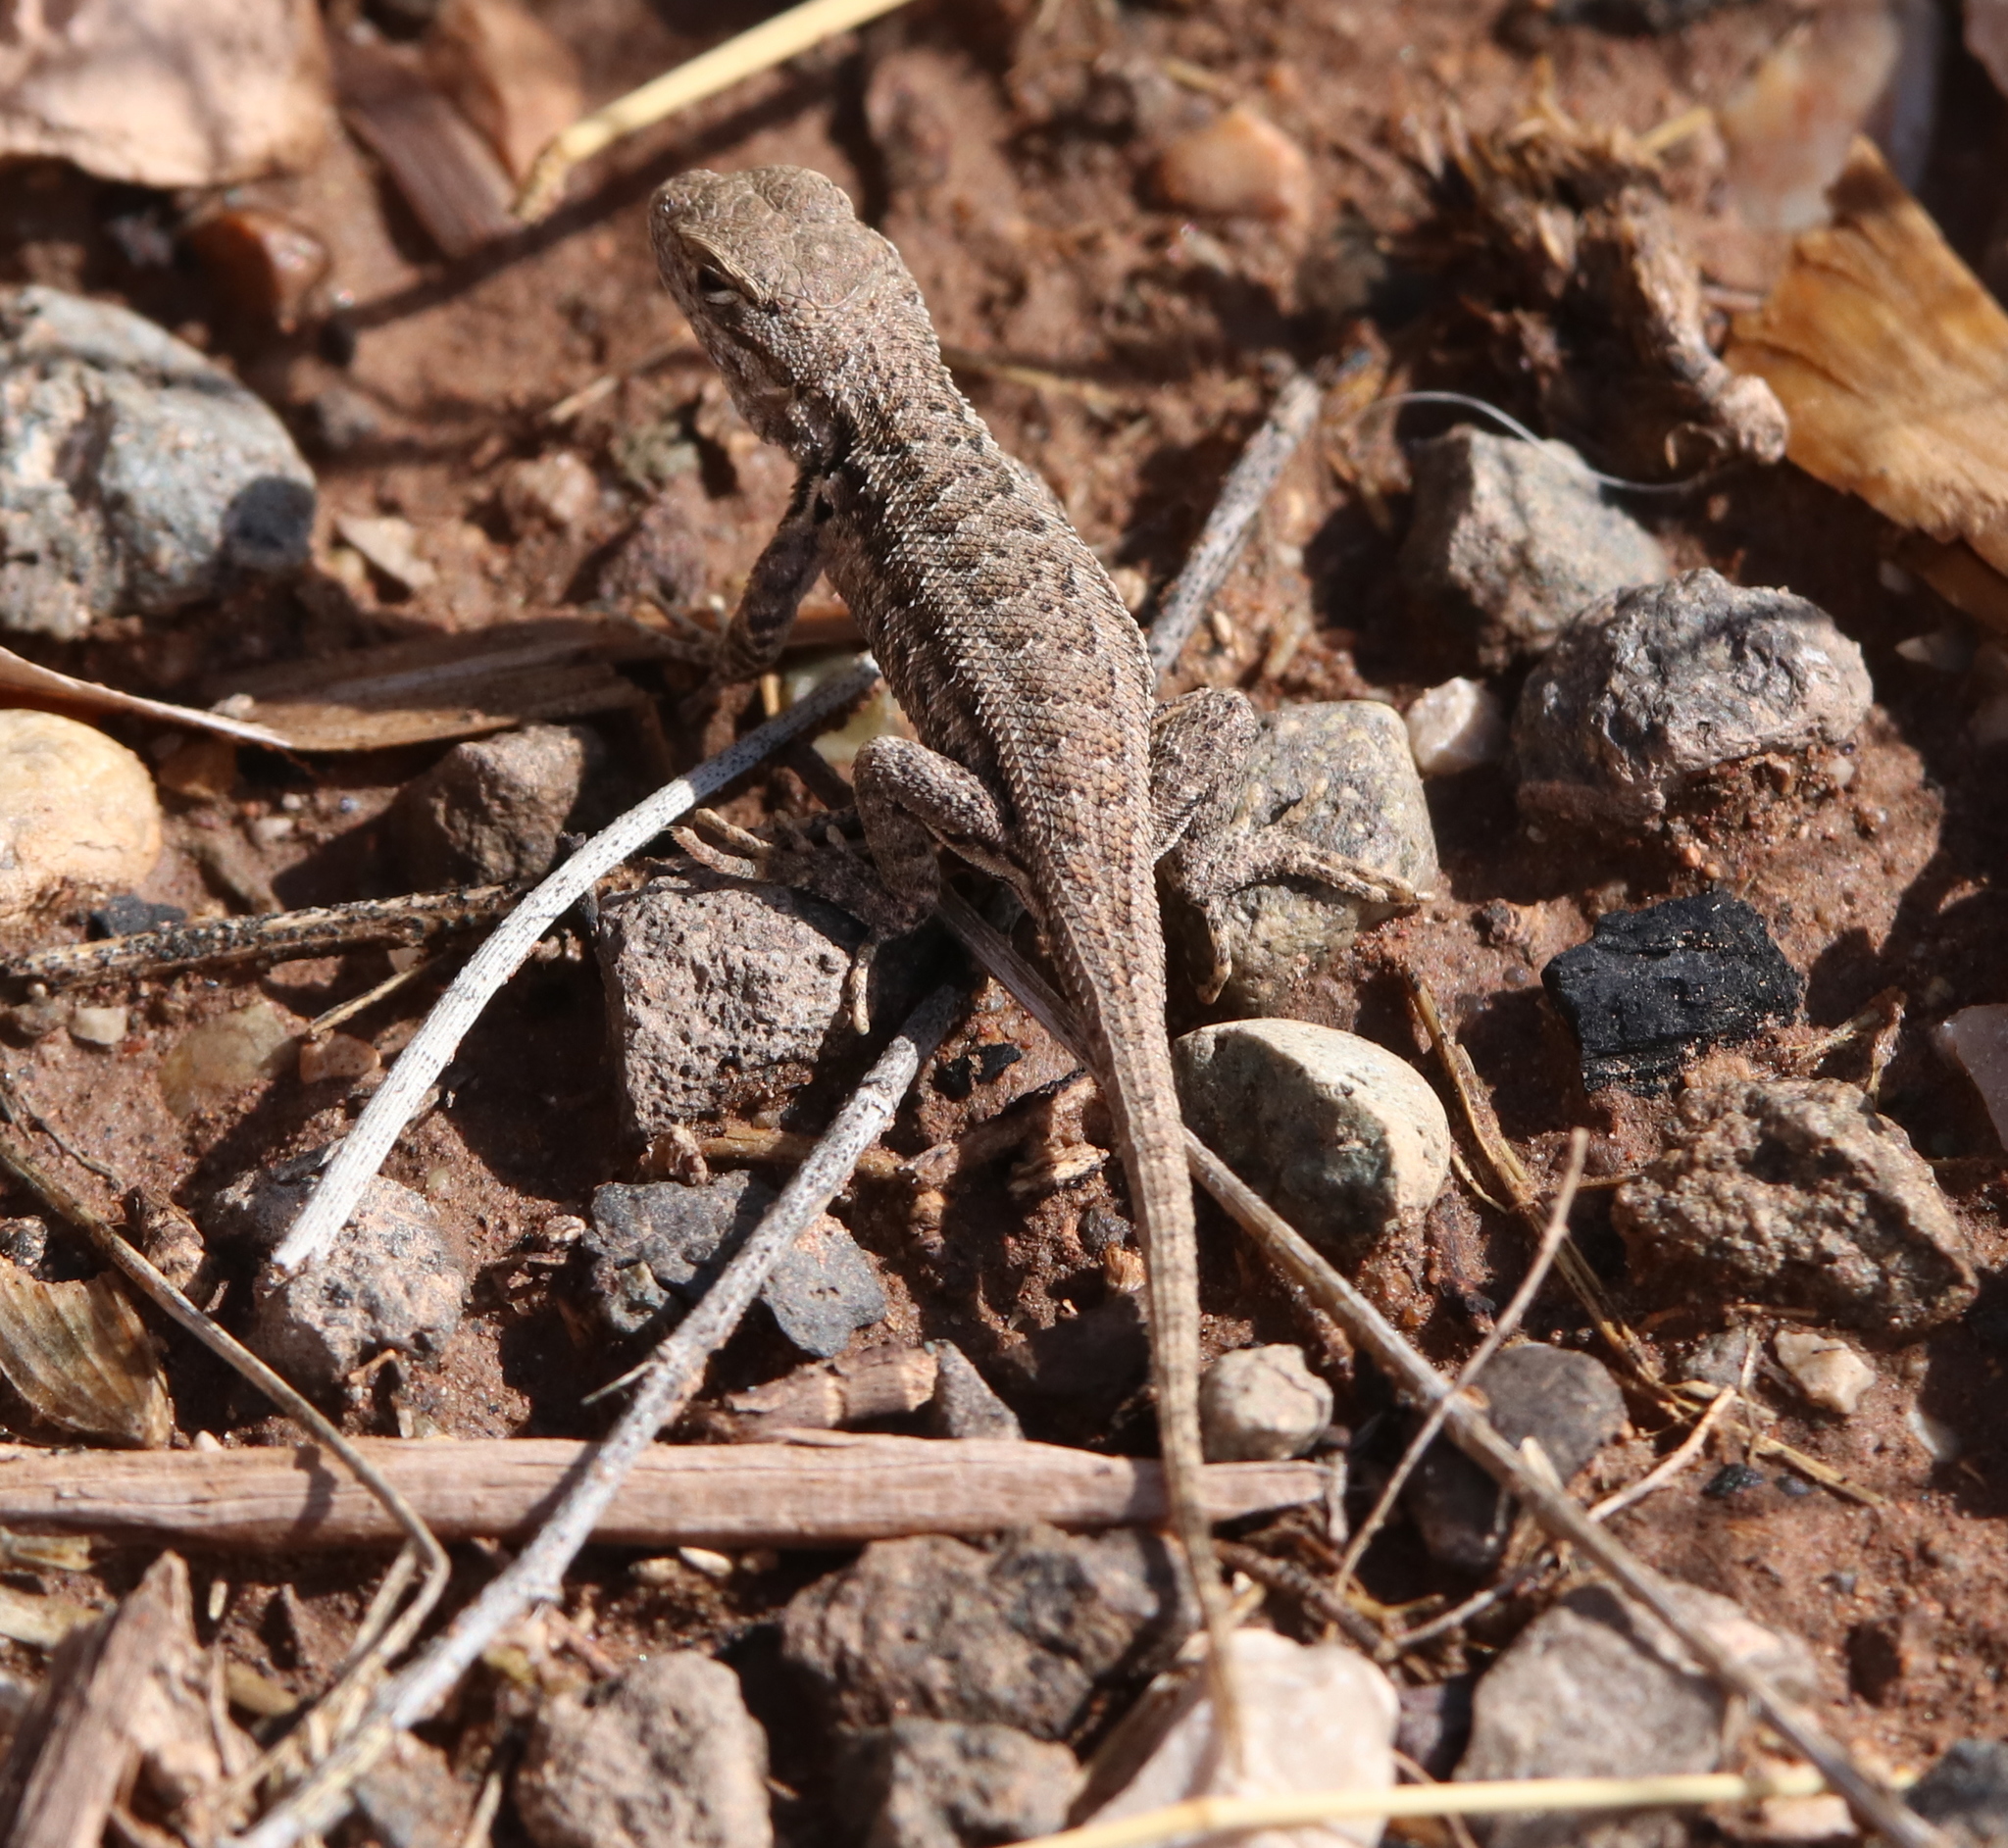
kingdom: Animalia
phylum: Chordata
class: Squamata
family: Phrynosomatidae
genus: Sceloporus
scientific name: Sceloporus graciosus
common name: Sagebrush lizard
